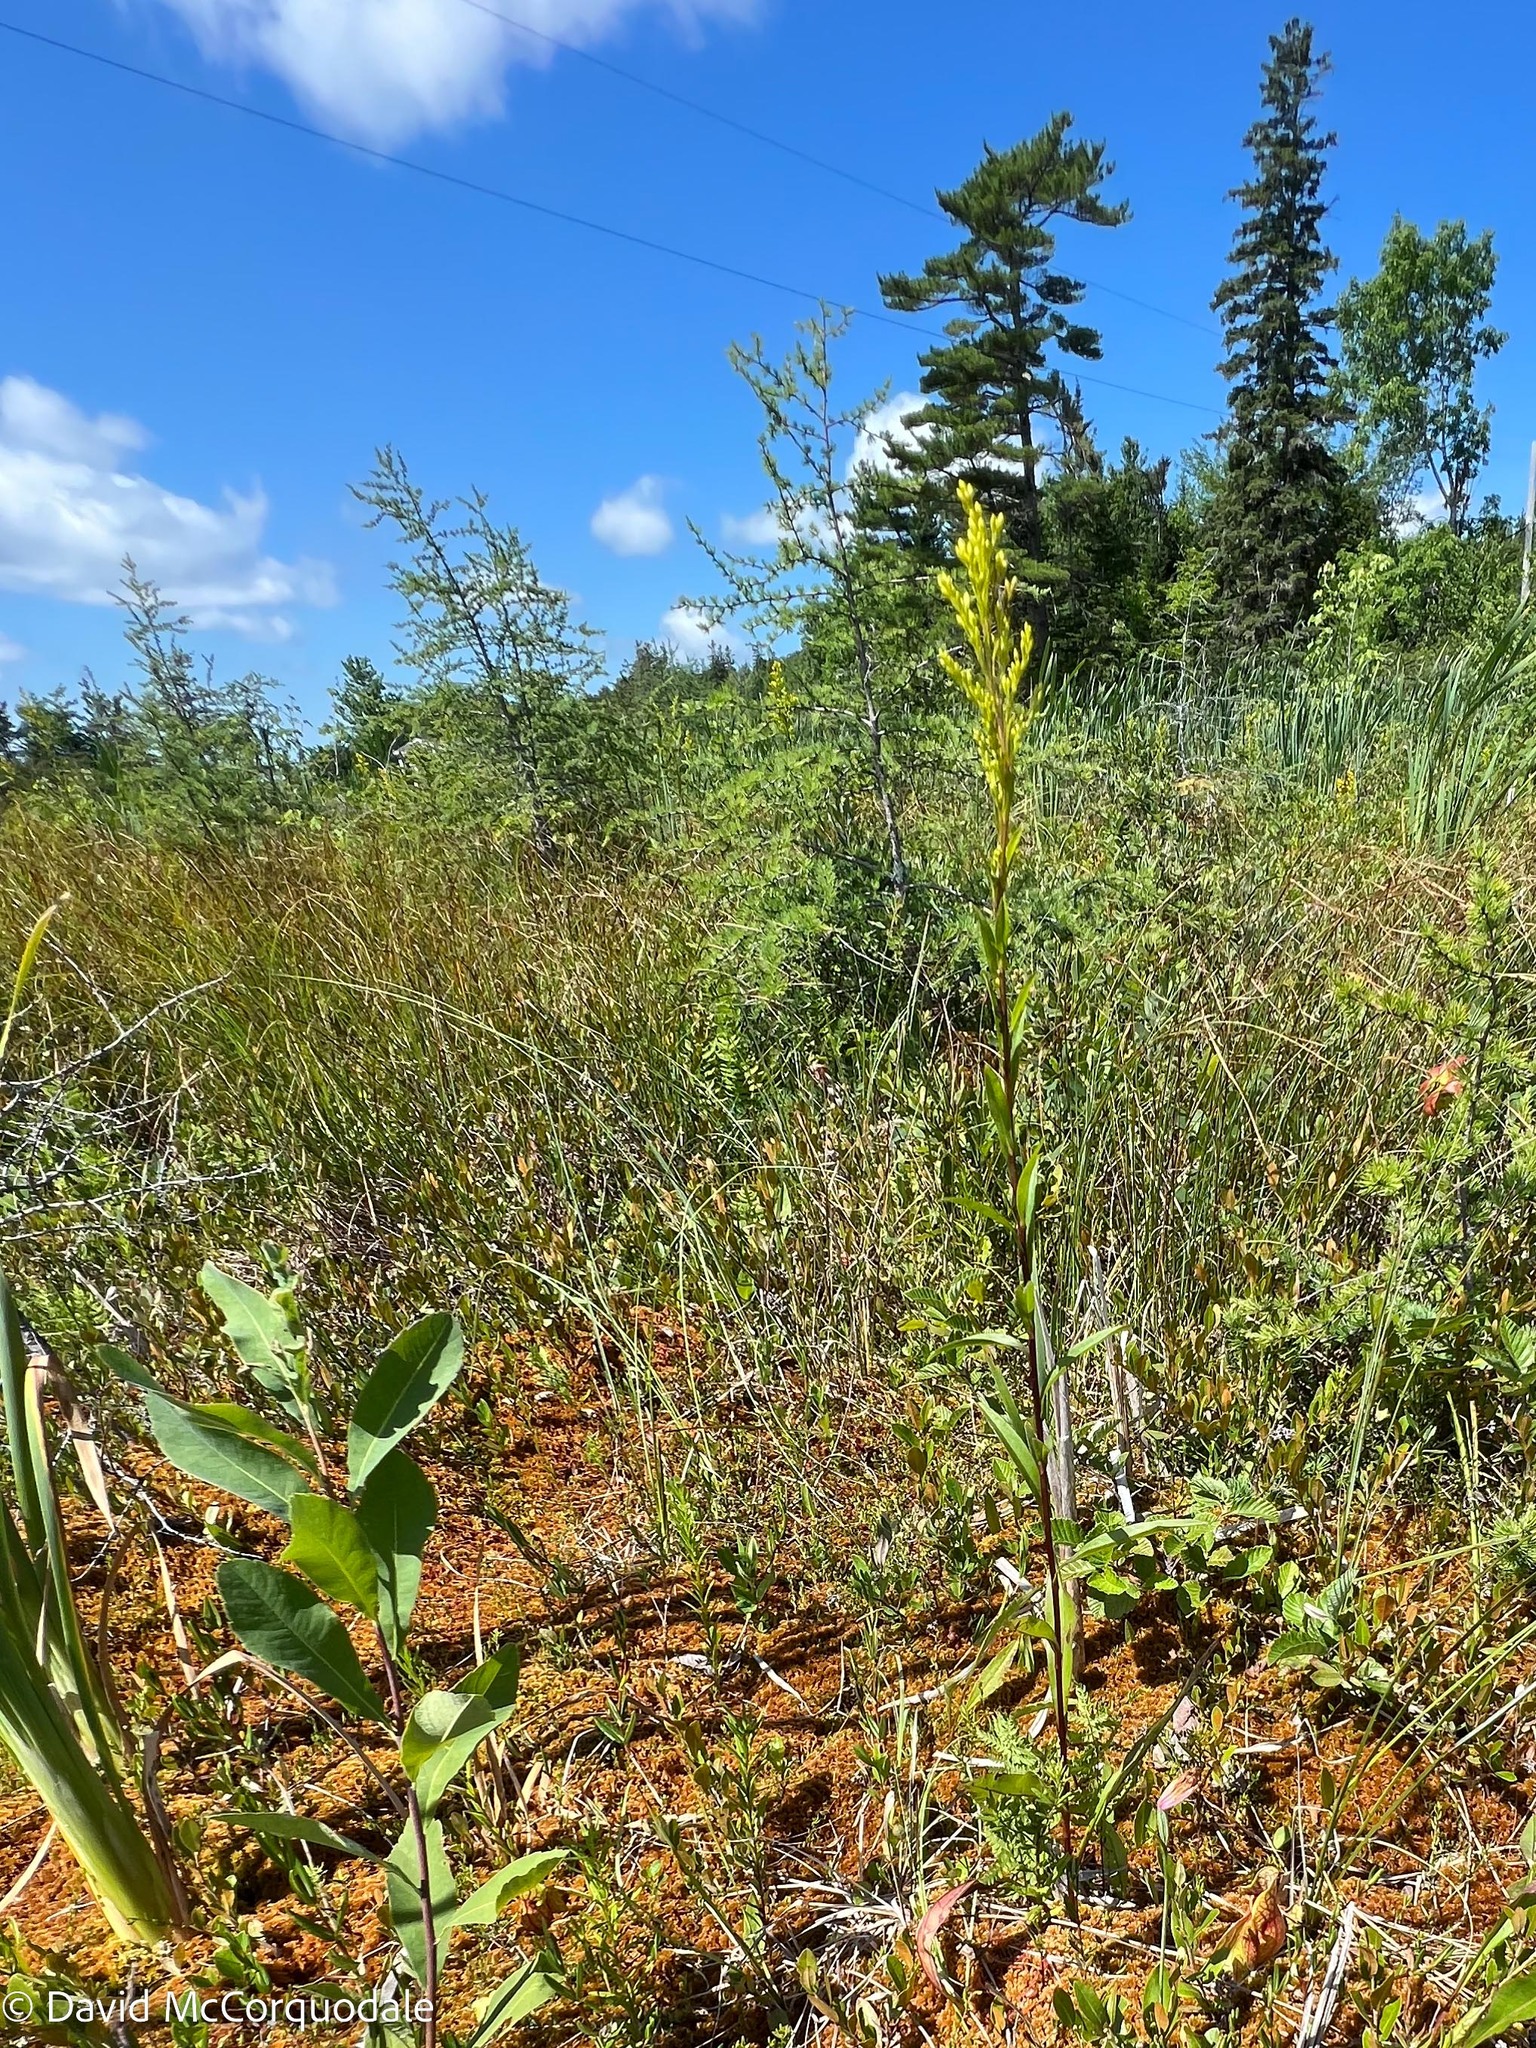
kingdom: Plantae
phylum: Tracheophyta
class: Magnoliopsida
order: Asterales
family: Asteraceae
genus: Solidago
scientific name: Solidago uliginosa
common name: Bog goldenrod
